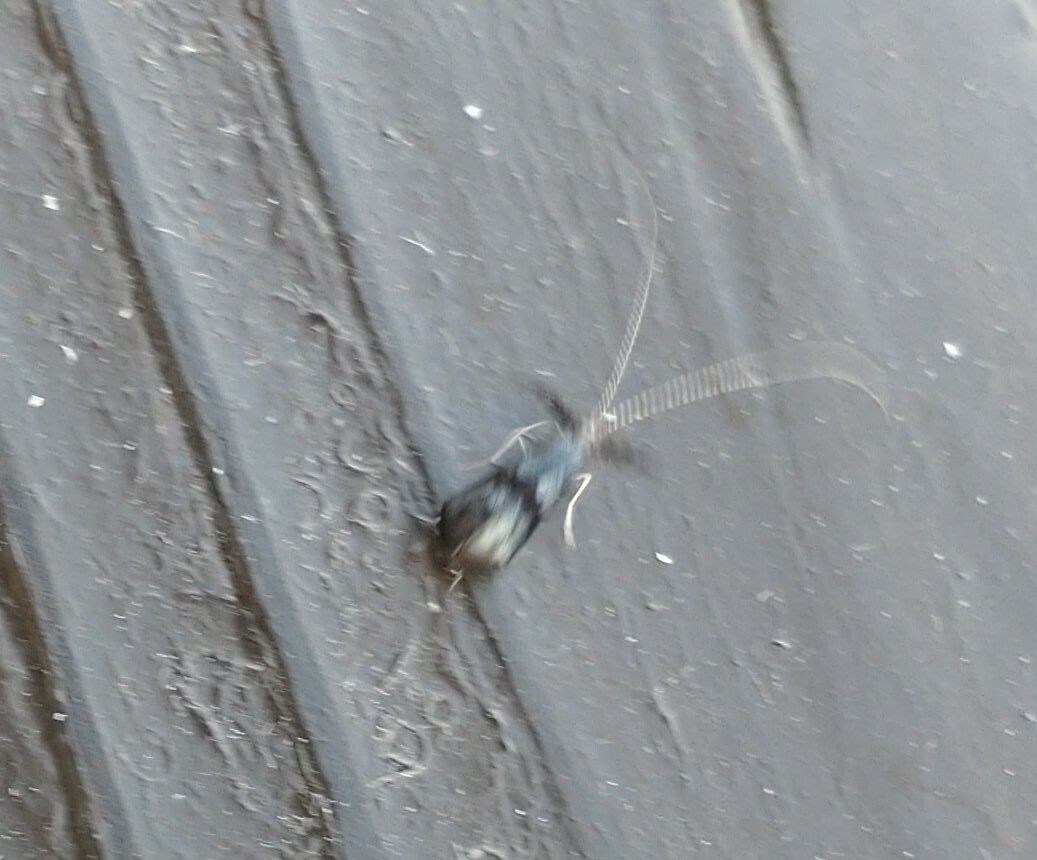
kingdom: Animalia
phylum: Arthropoda
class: Insecta
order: Trichoptera
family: Leptoceridae
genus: Mystacides
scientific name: Mystacides azureus
